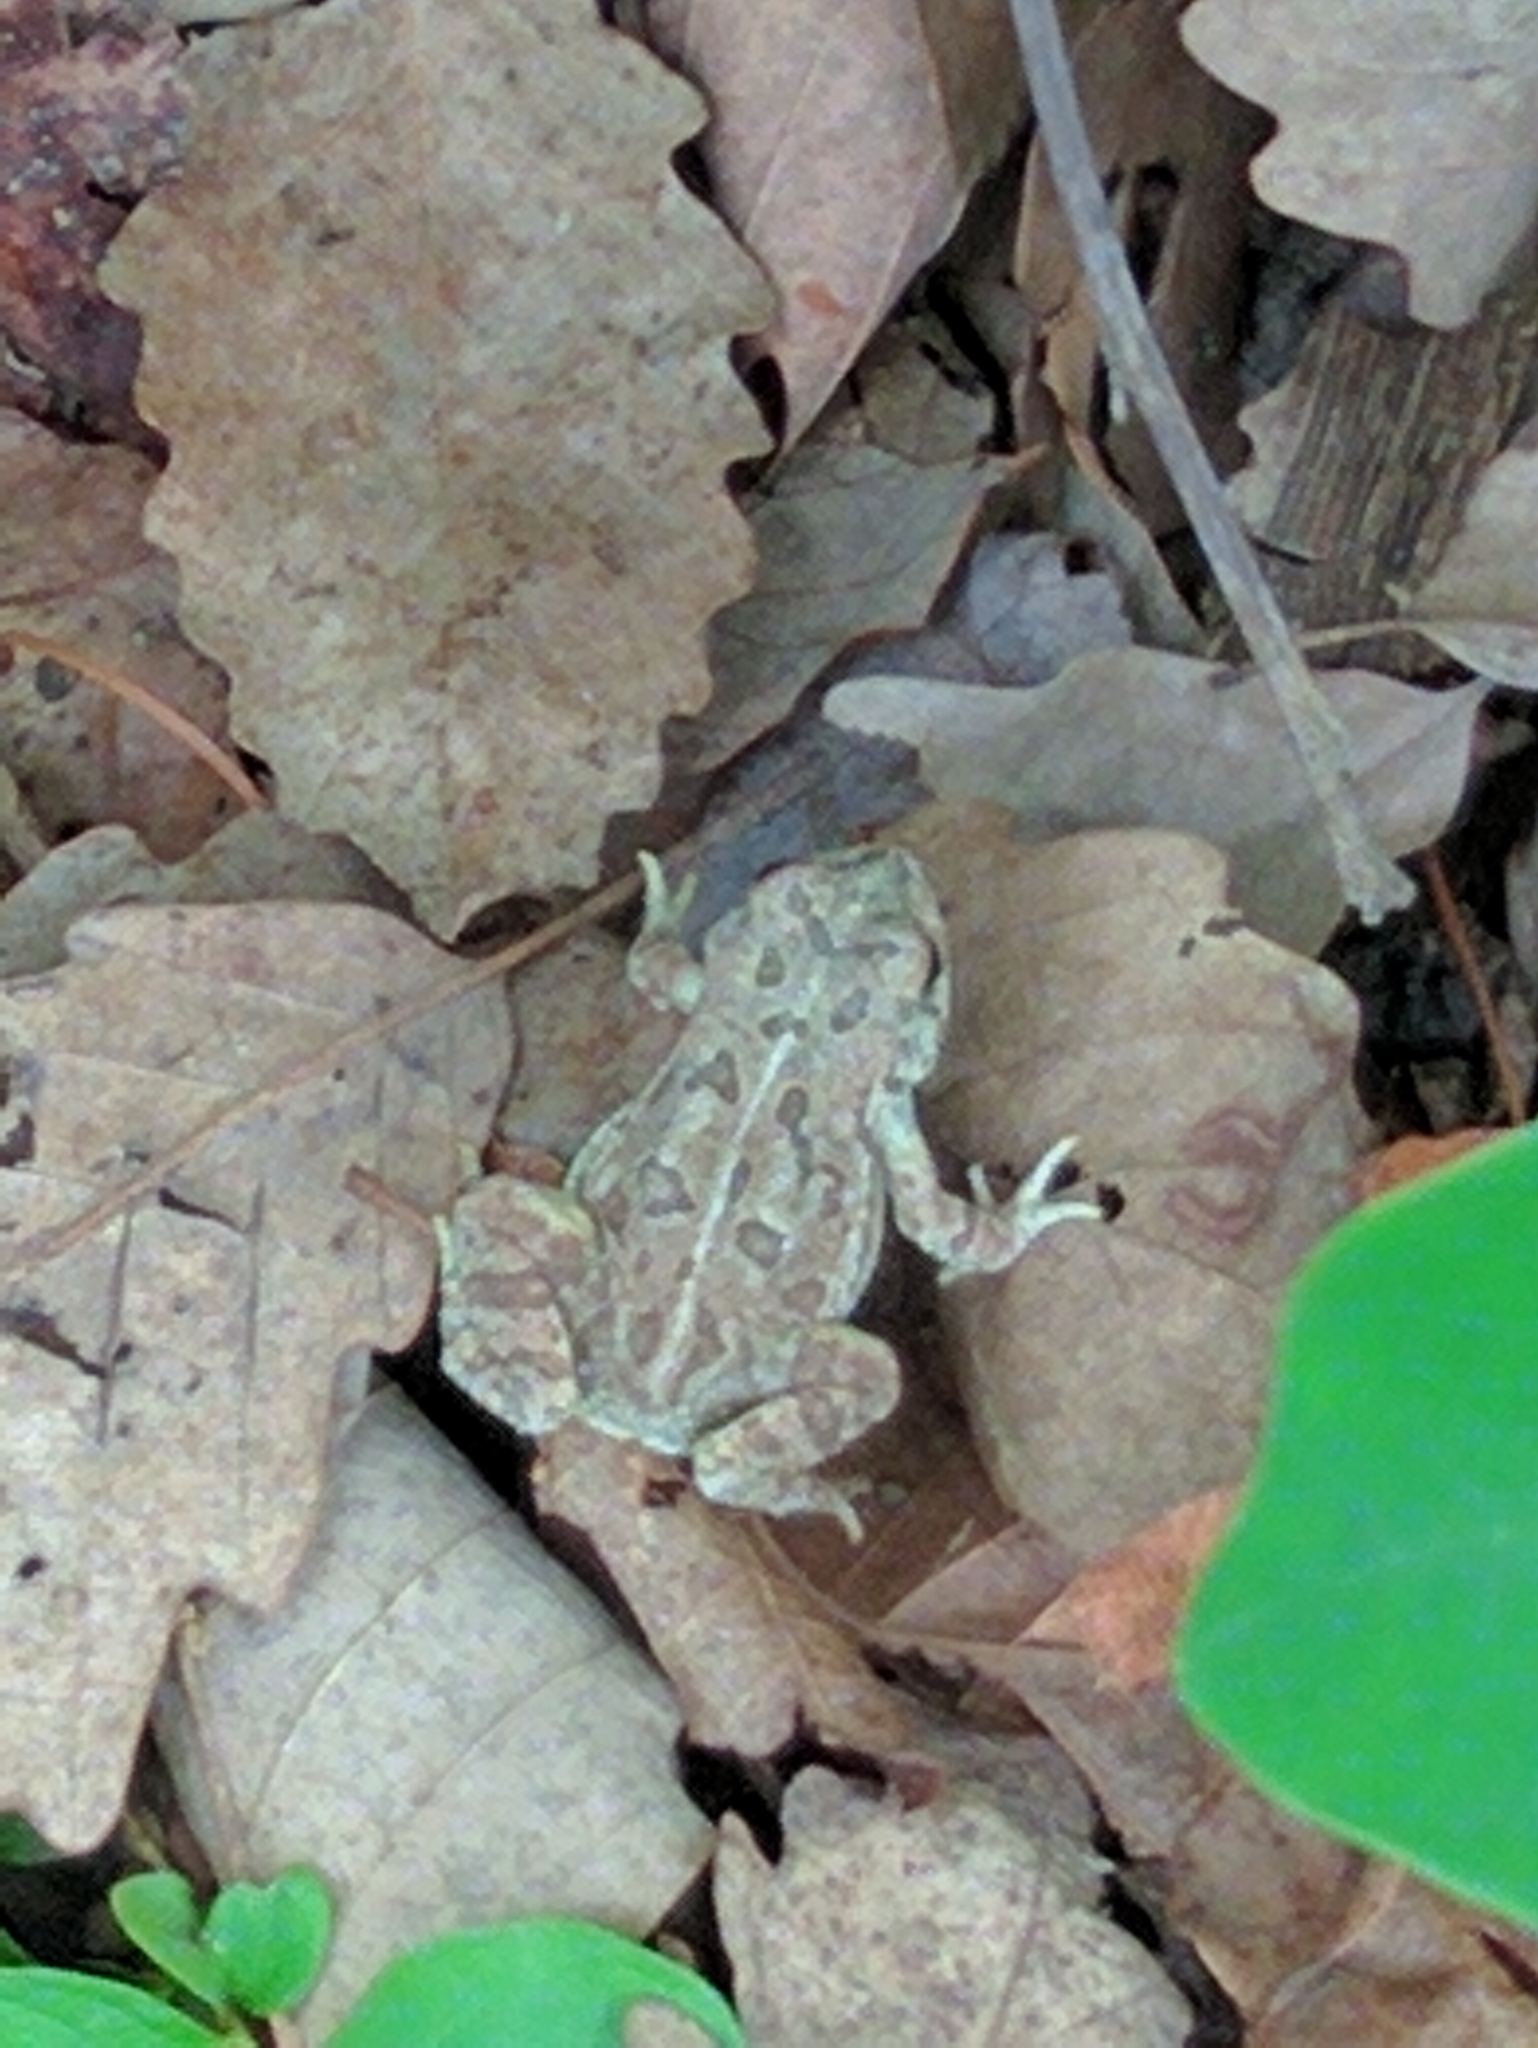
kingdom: Animalia
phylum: Chordata
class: Amphibia
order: Anura
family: Bufonidae
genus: Anaxyrus
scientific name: Anaxyrus fowleri
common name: Fowler's toad
